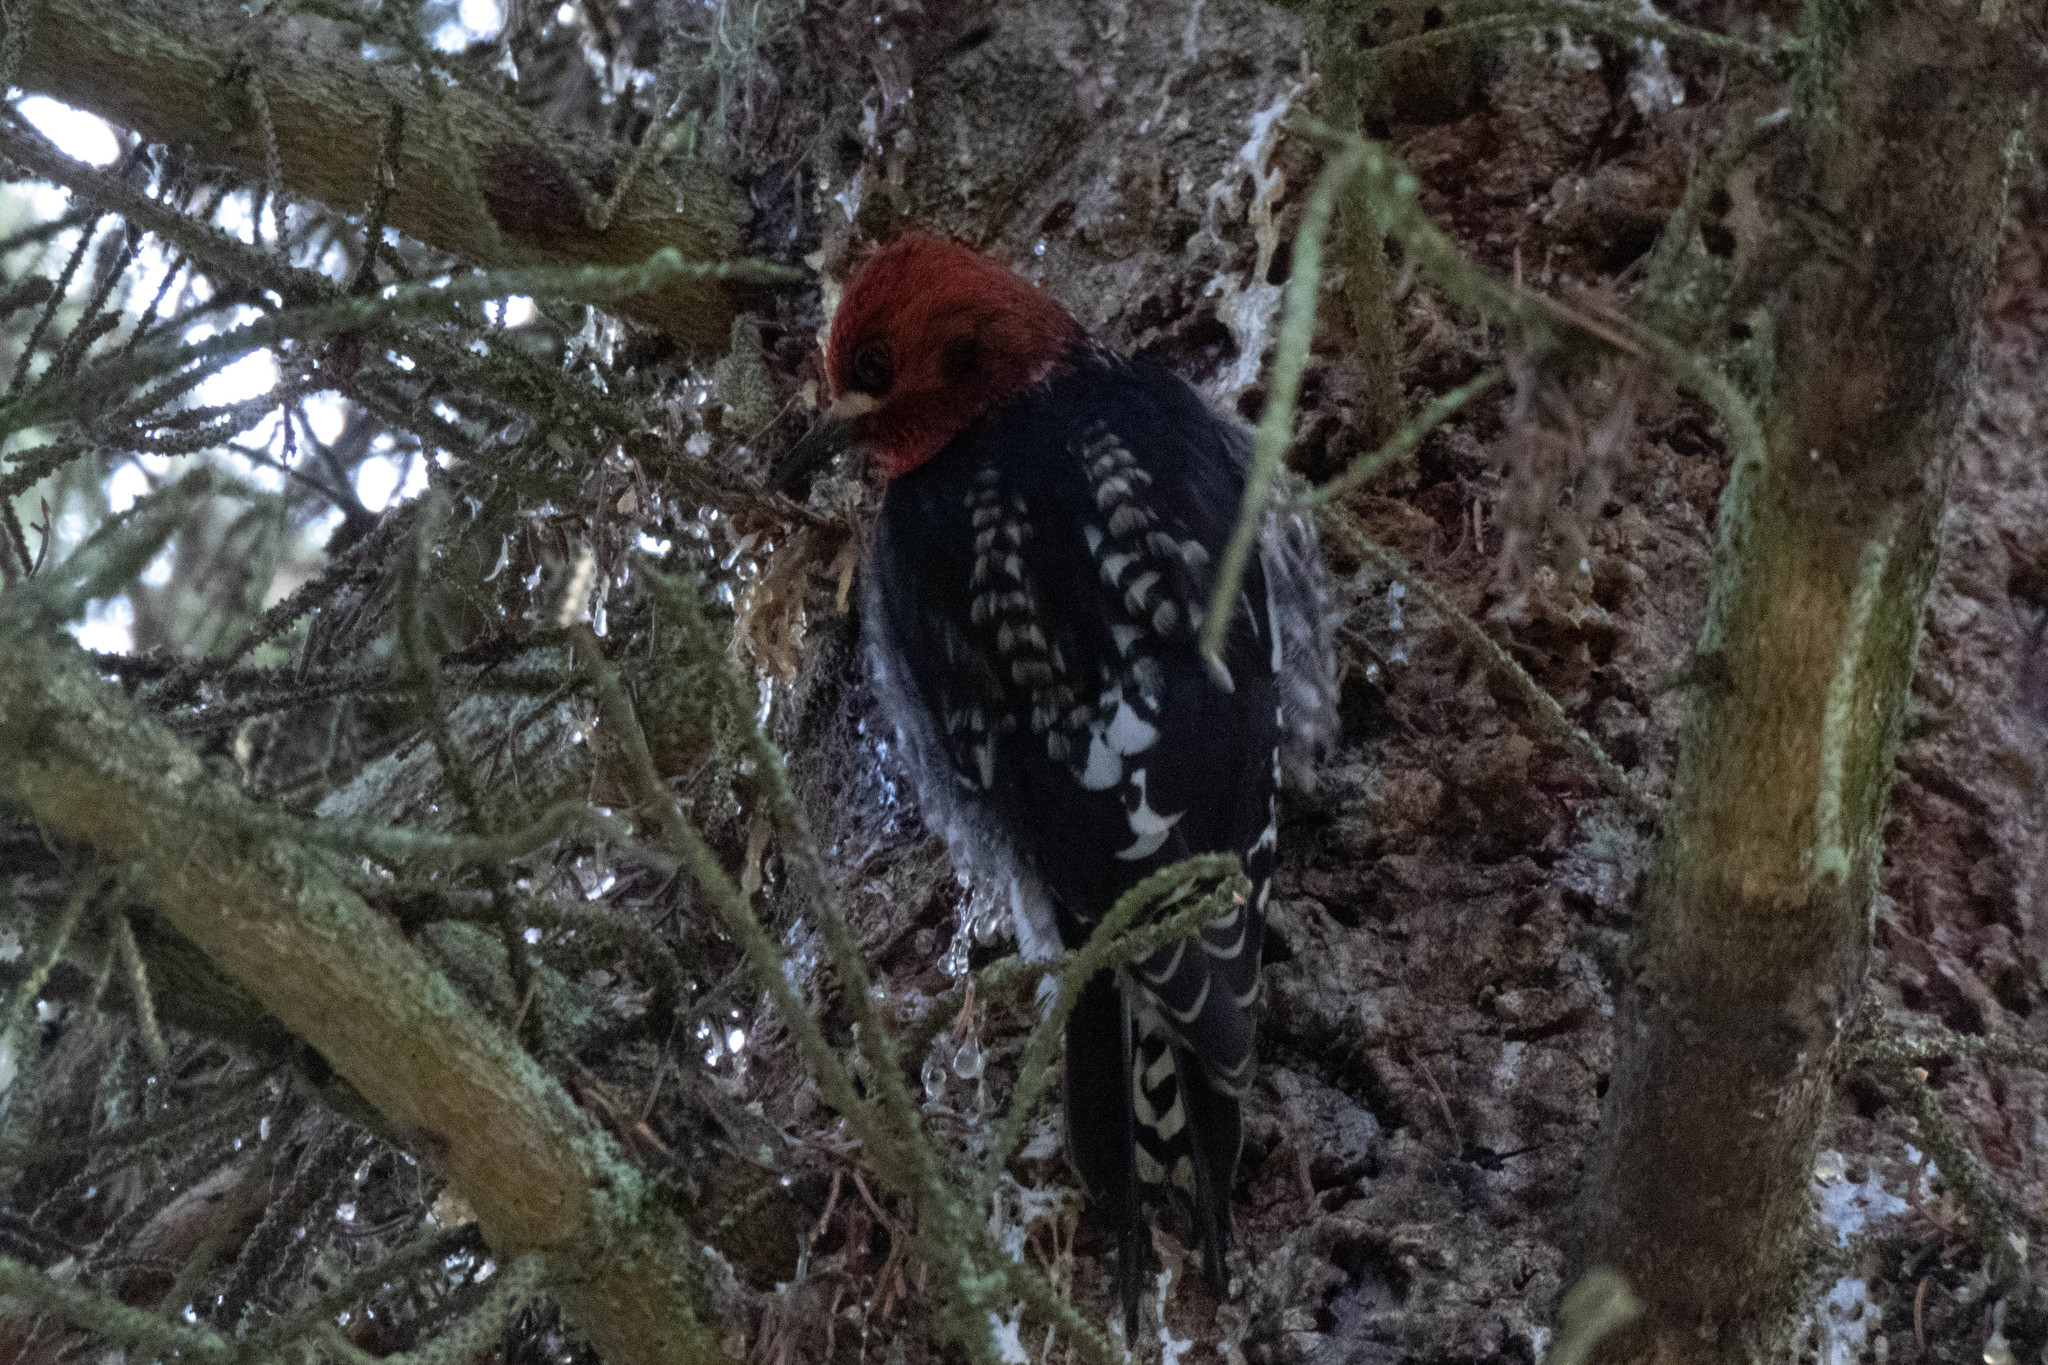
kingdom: Animalia
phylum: Chordata
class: Aves
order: Piciformes
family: Picidae
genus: Sphyrapicus
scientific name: Sphyrapicus ruber
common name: Red-breasted sapsucker
